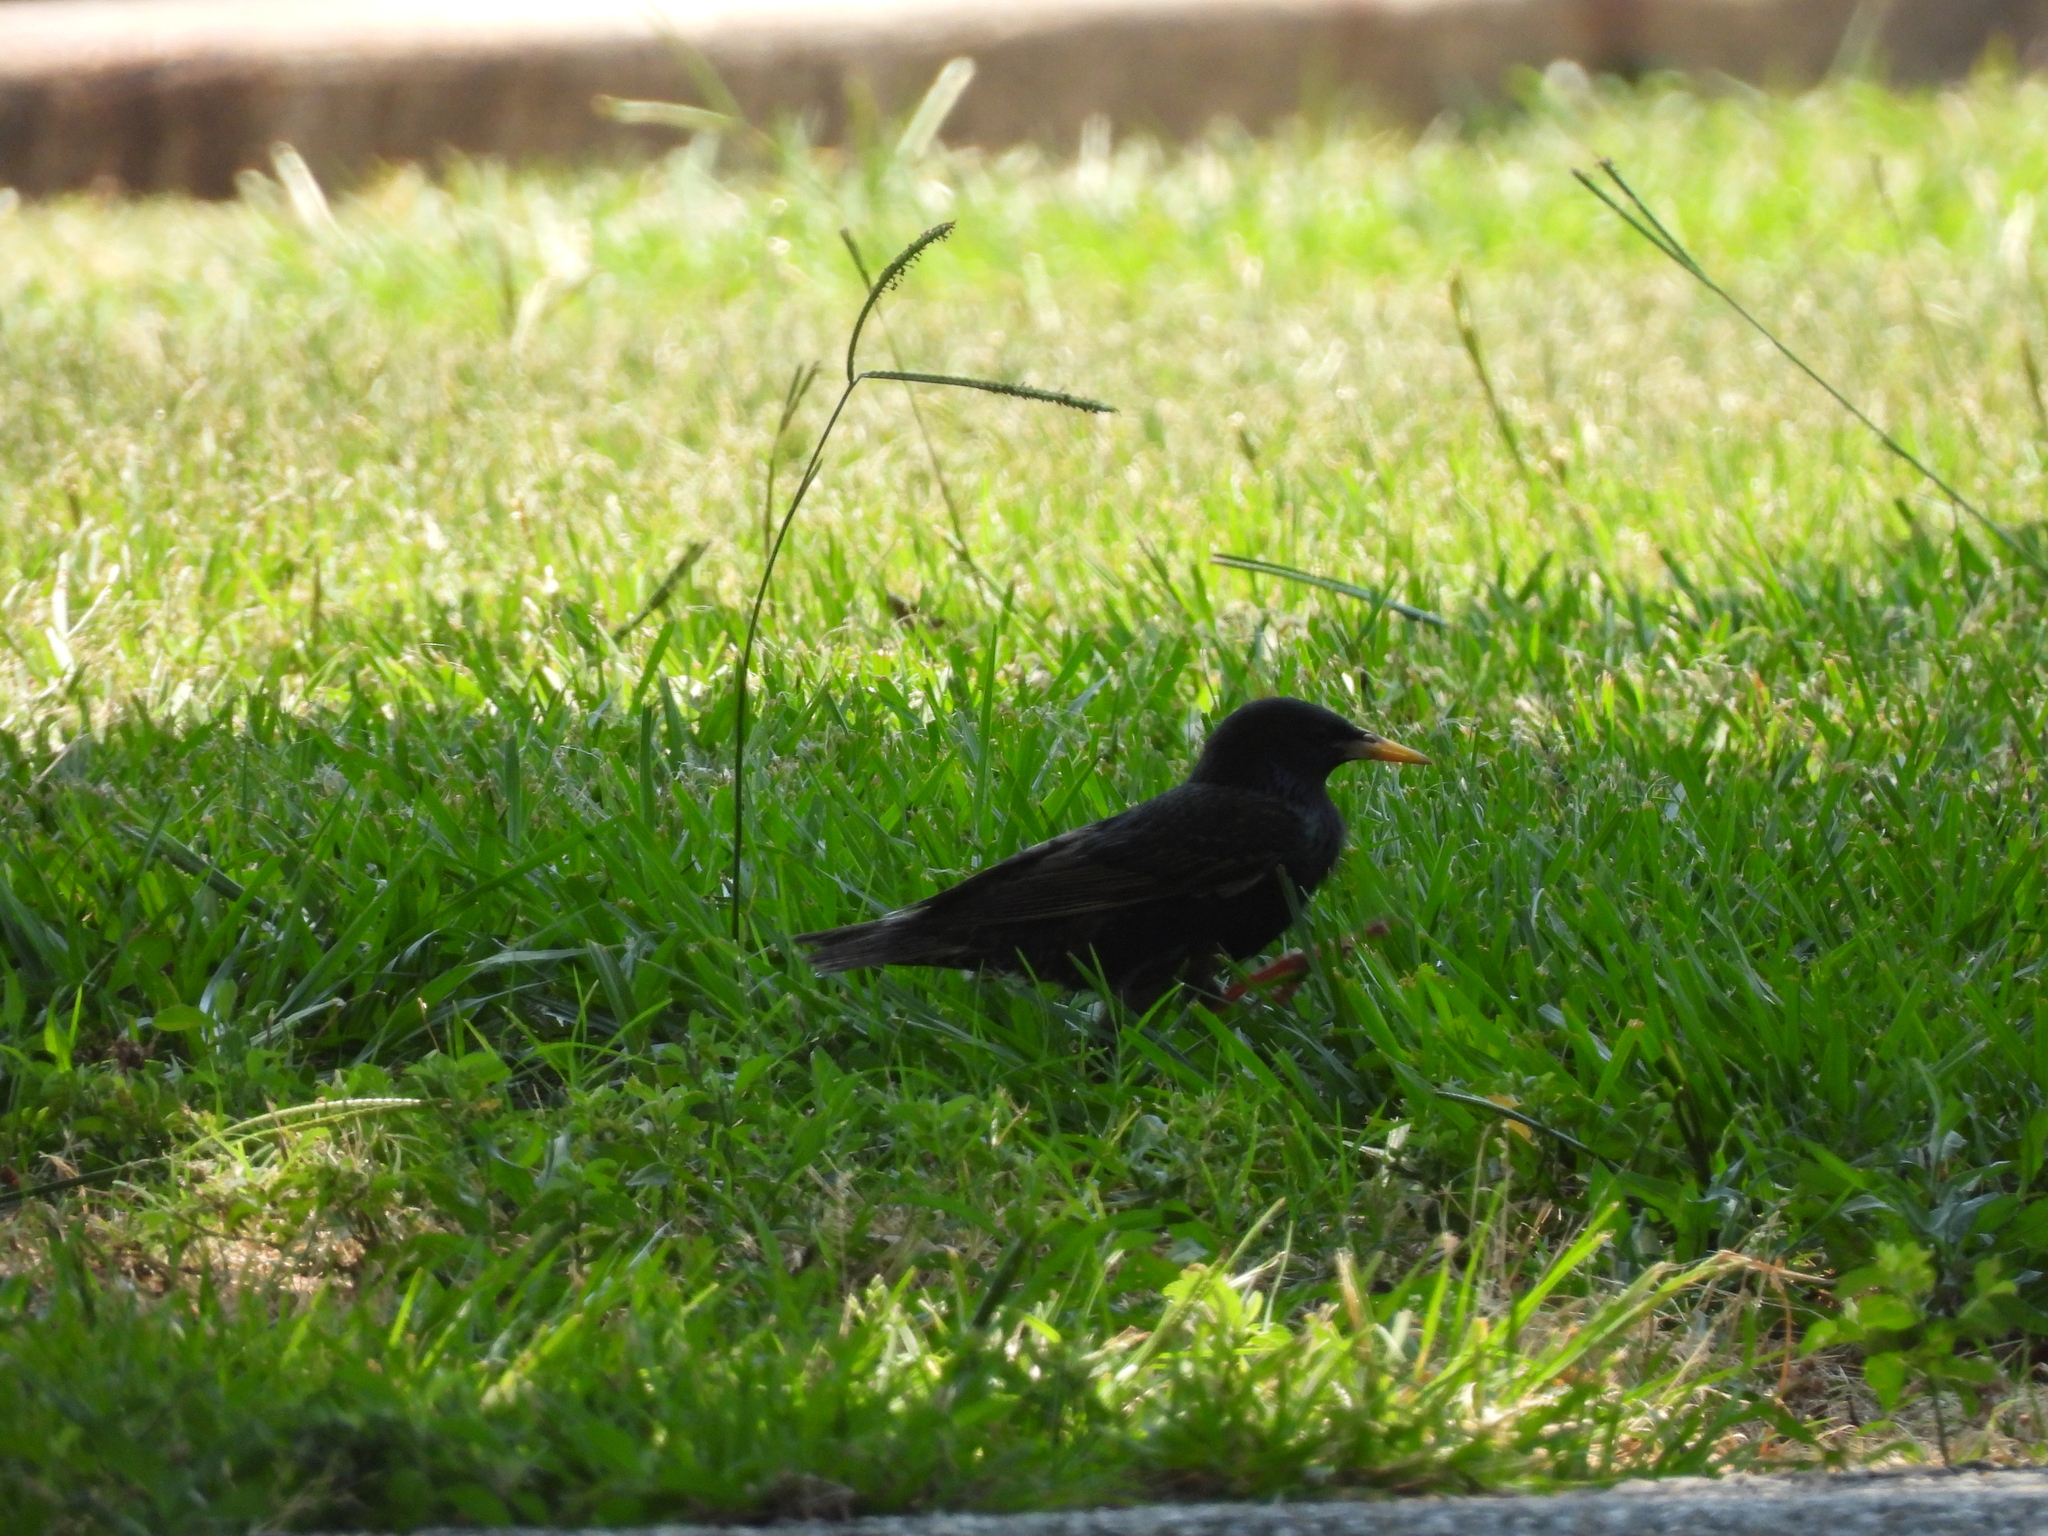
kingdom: Animalia
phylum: Chordata
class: Aves
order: Passeriformes
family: Sturnidae
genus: Sturnus
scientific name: Sturnus vulgaris
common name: Common starling
